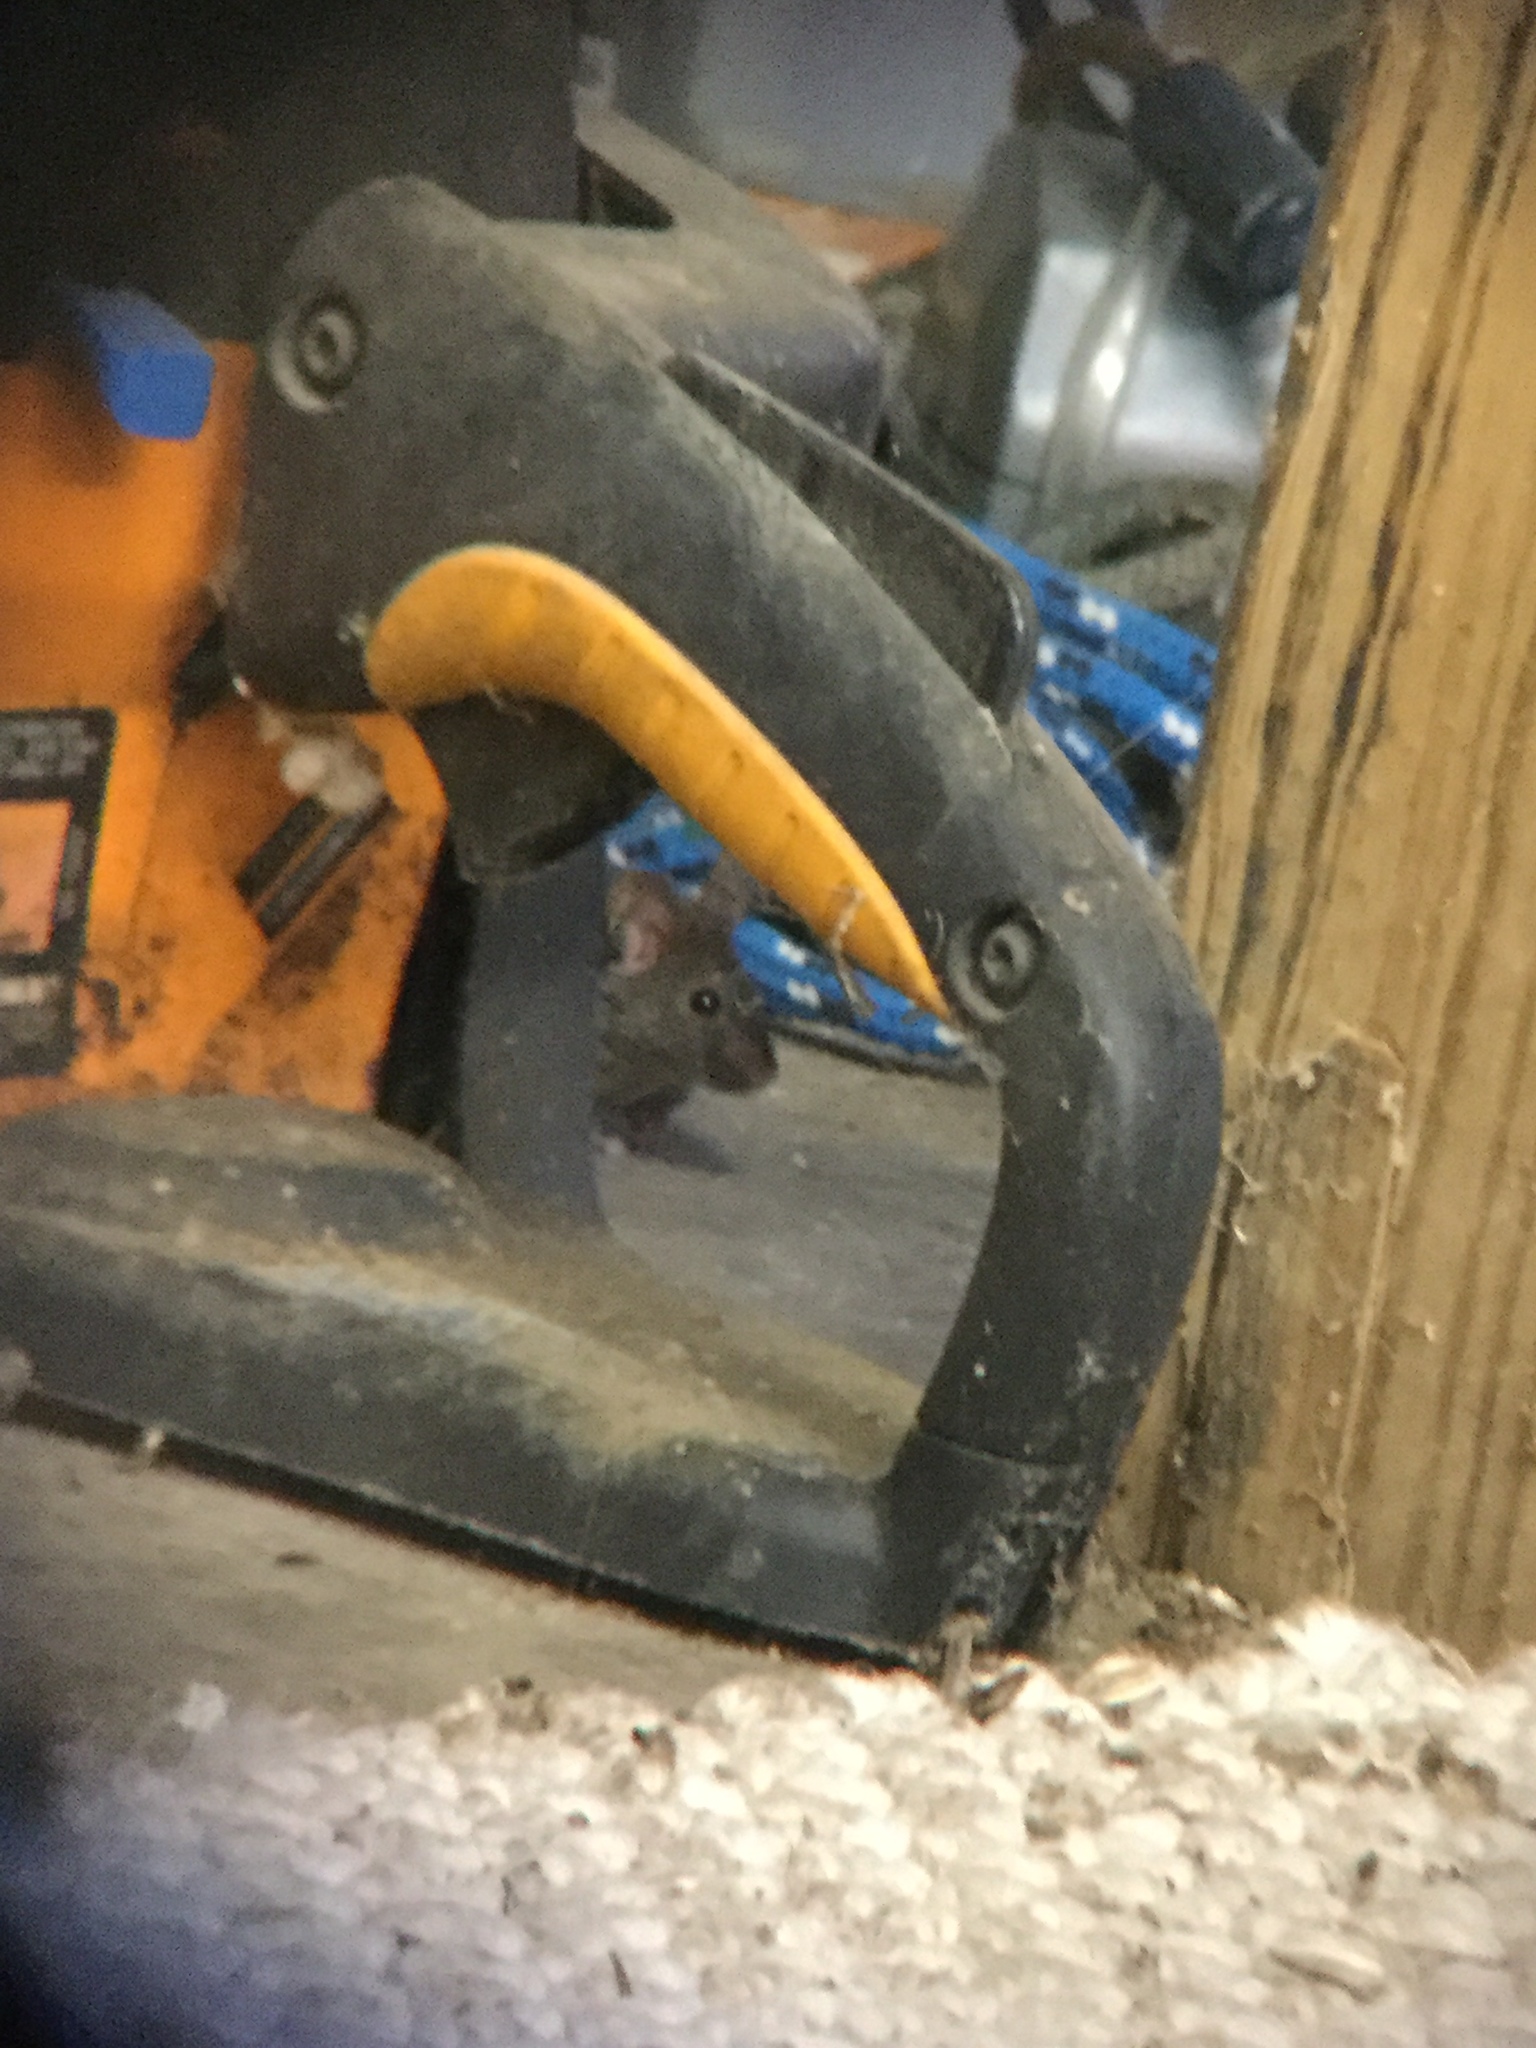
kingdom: Animalia
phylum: Chordata
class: Mammalia
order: Rodentia
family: Muridae
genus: Mus
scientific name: Mus musculus
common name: House mouse
